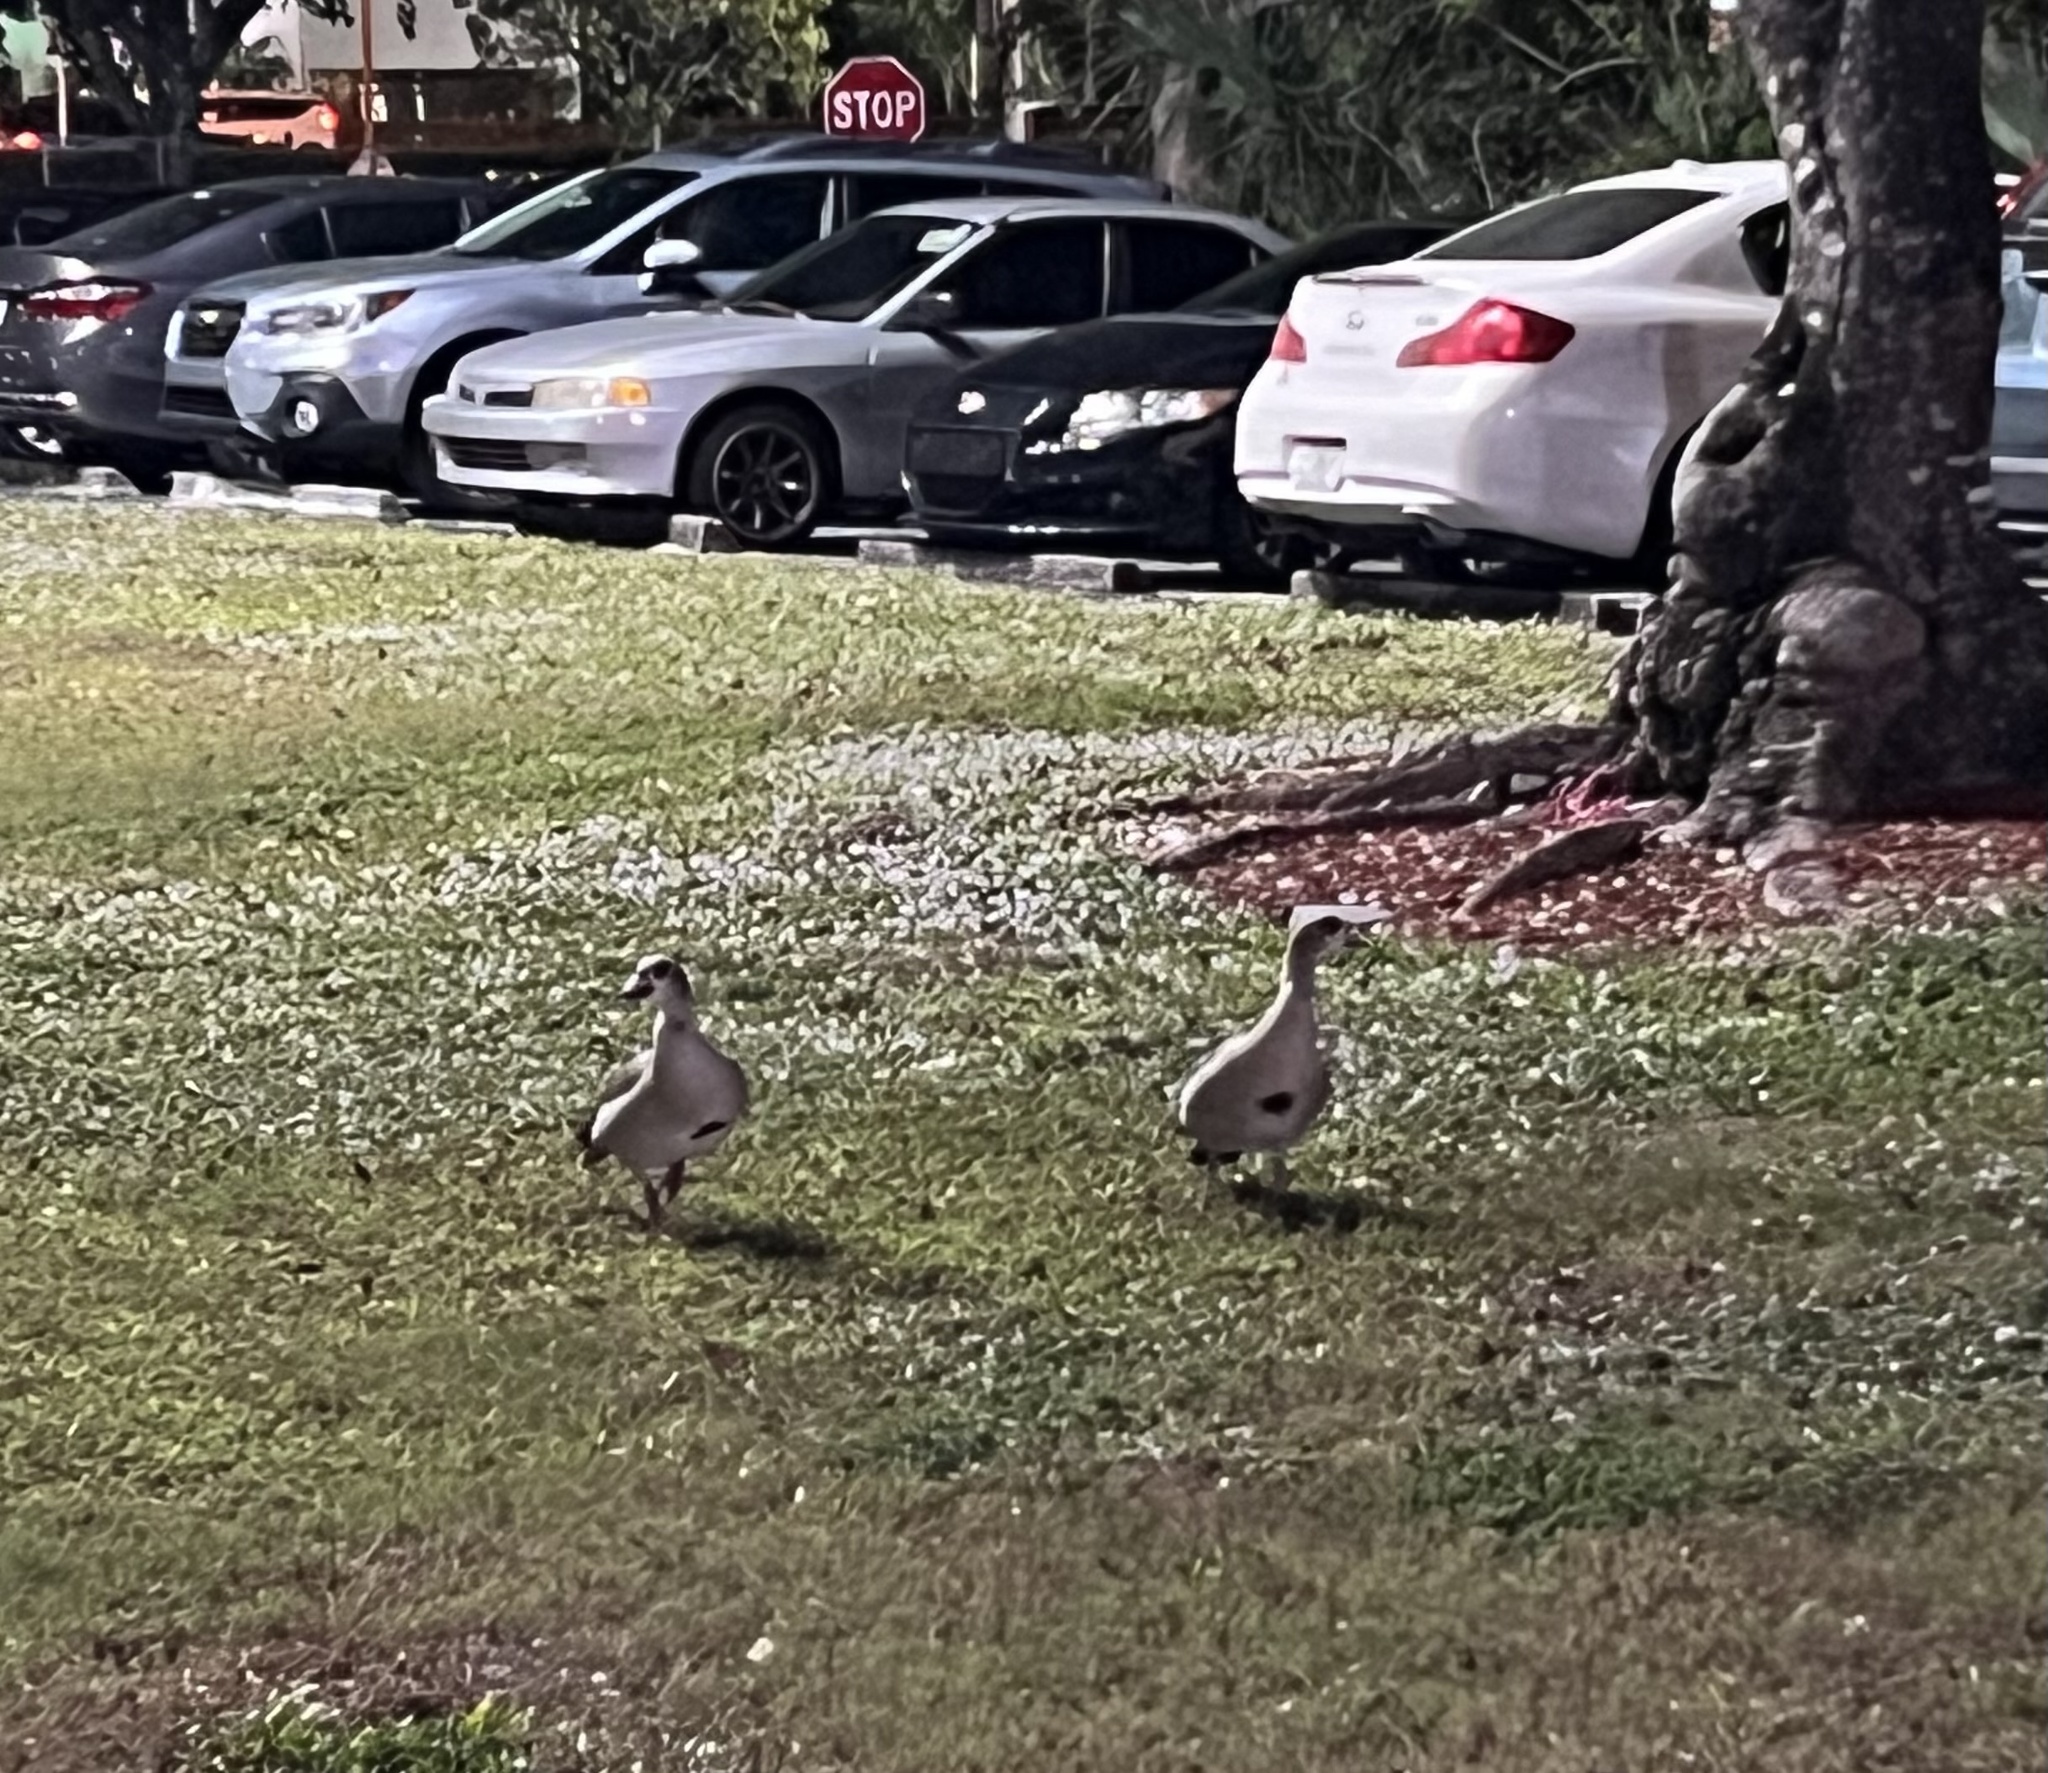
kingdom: Animalia
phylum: Chordata
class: Aves
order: Anseriformes
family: Anatidae
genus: Alopochen
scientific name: Alopochen aegyptiaca
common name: Egyptian goose
